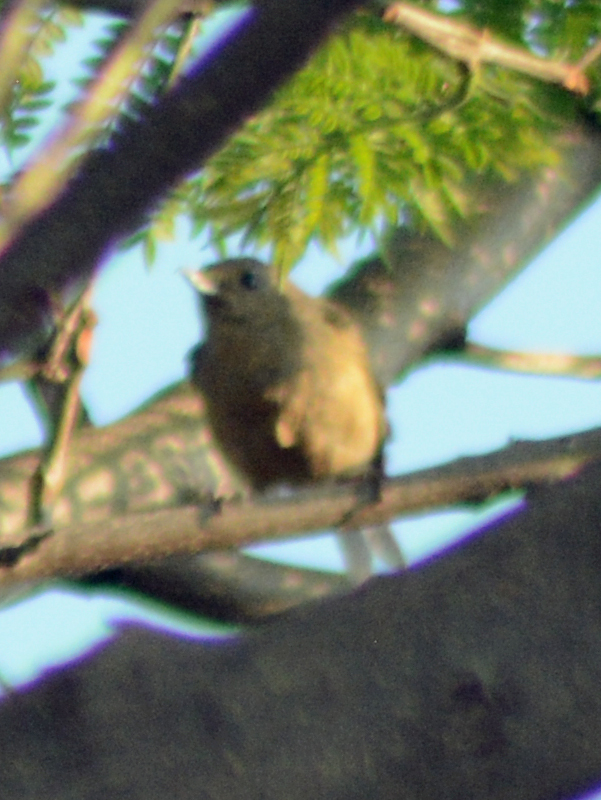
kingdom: Animalia
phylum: Chordata
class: Aves
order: Passeriformes
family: Thraupidae
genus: Diglossa
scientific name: Diglossa baritula
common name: Cinnamon-bellied flowerpiercer
